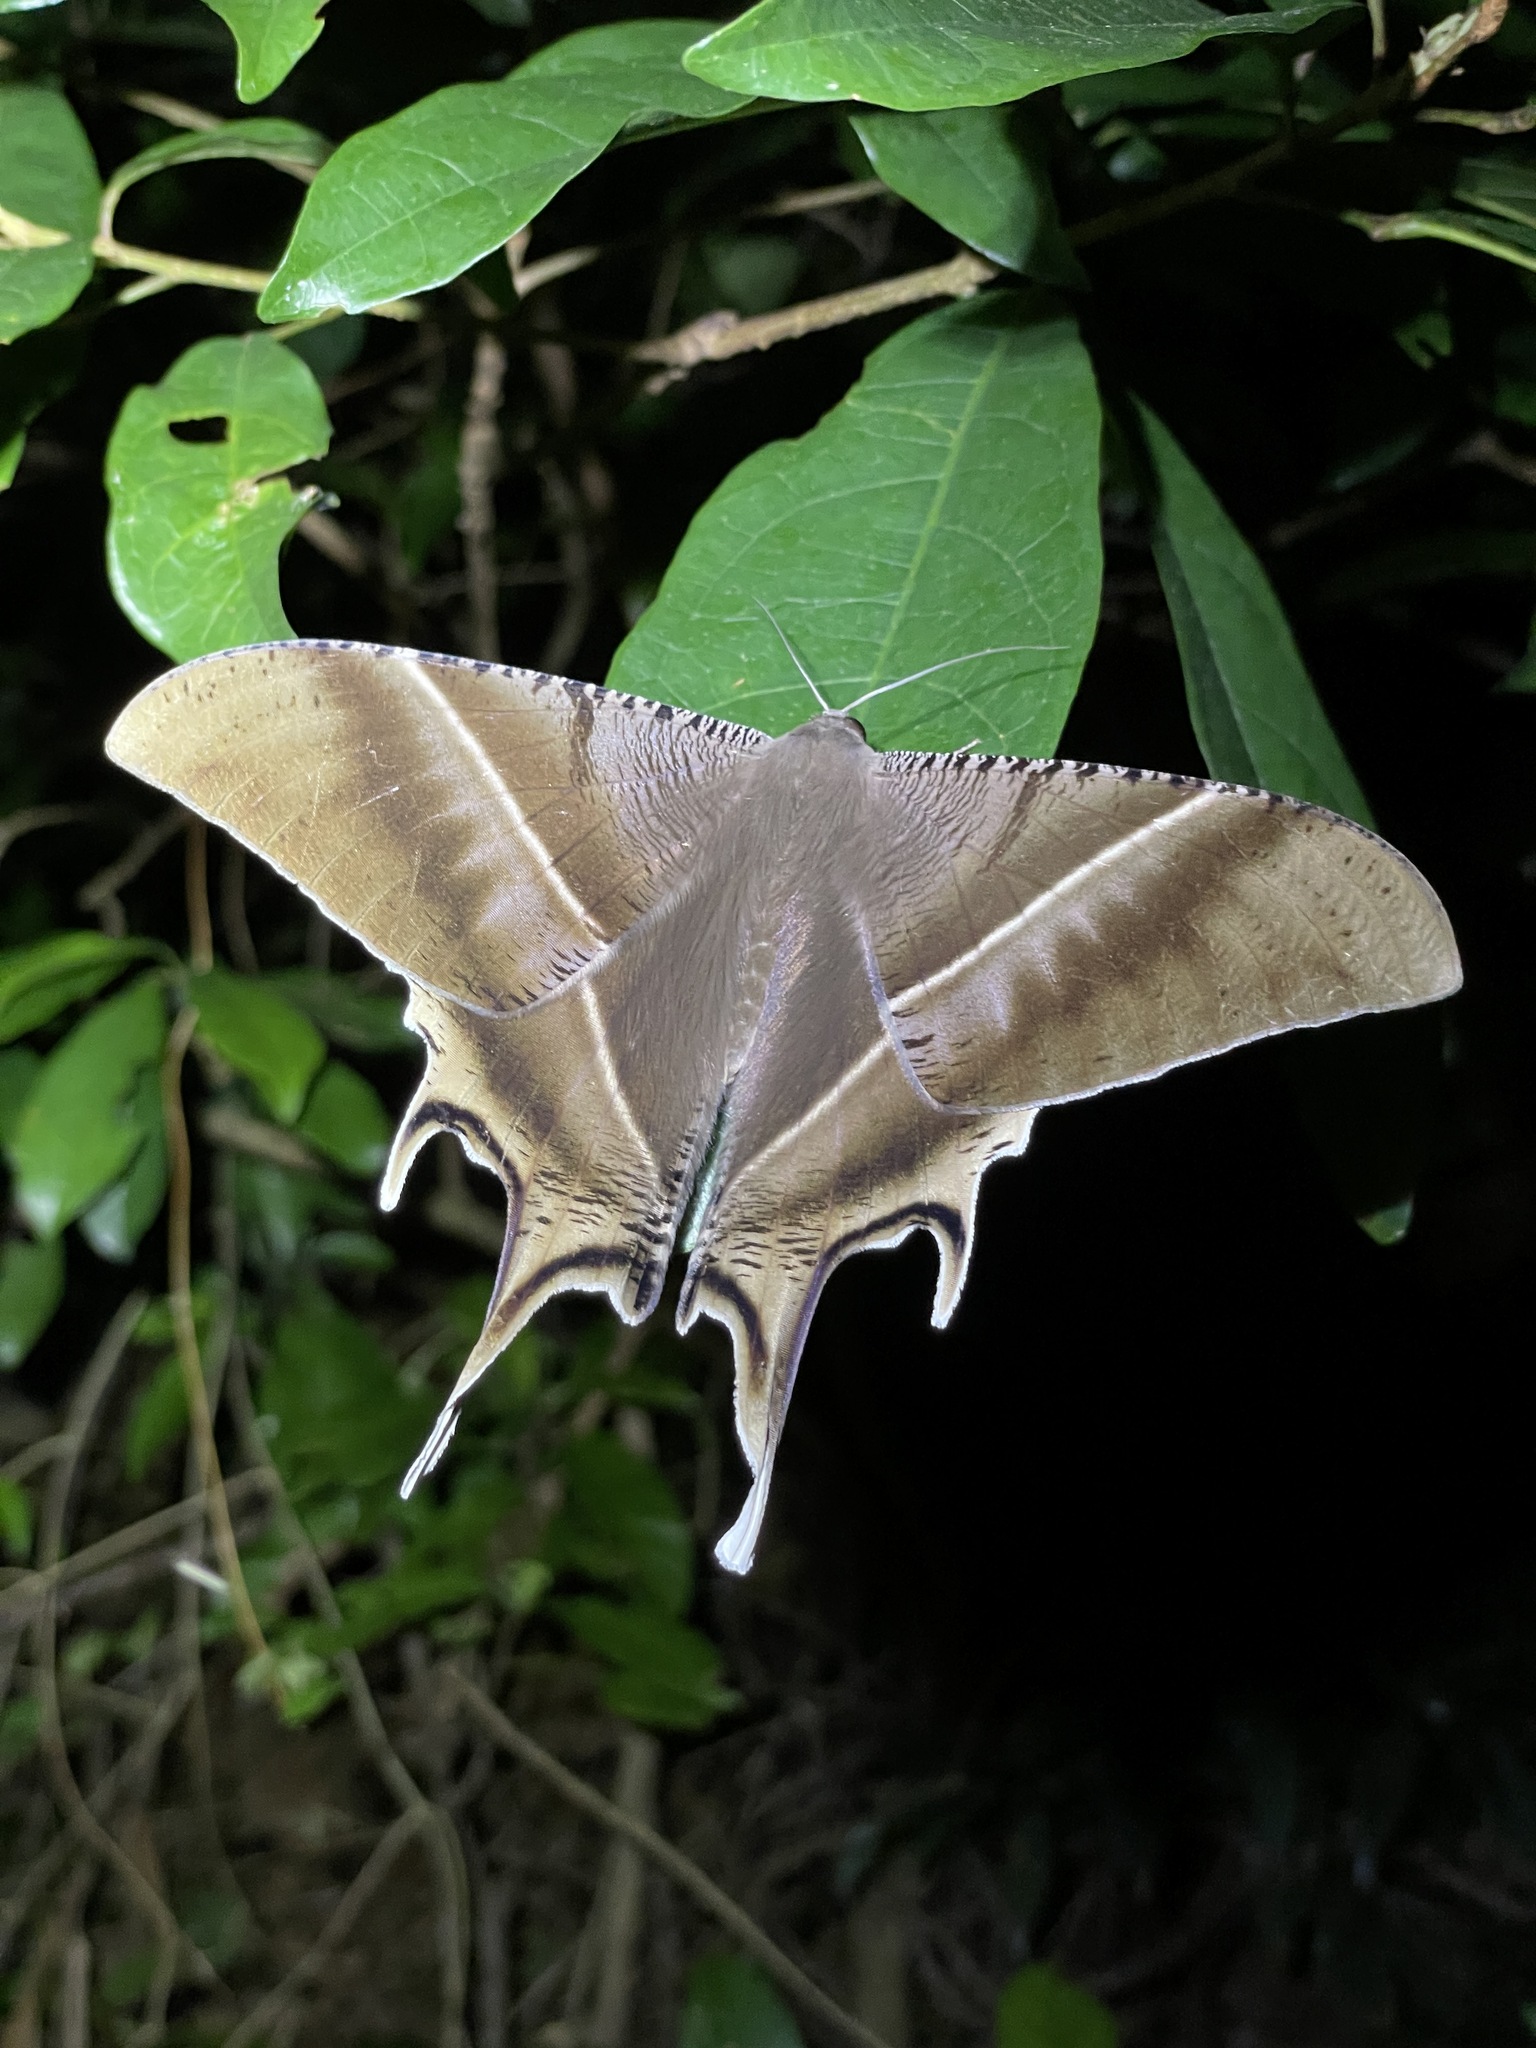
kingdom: Animalia
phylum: Arthropoda
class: Insecta
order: Lepidoptera
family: Uraniidae
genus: Lyssa
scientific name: Lyssa zampa
